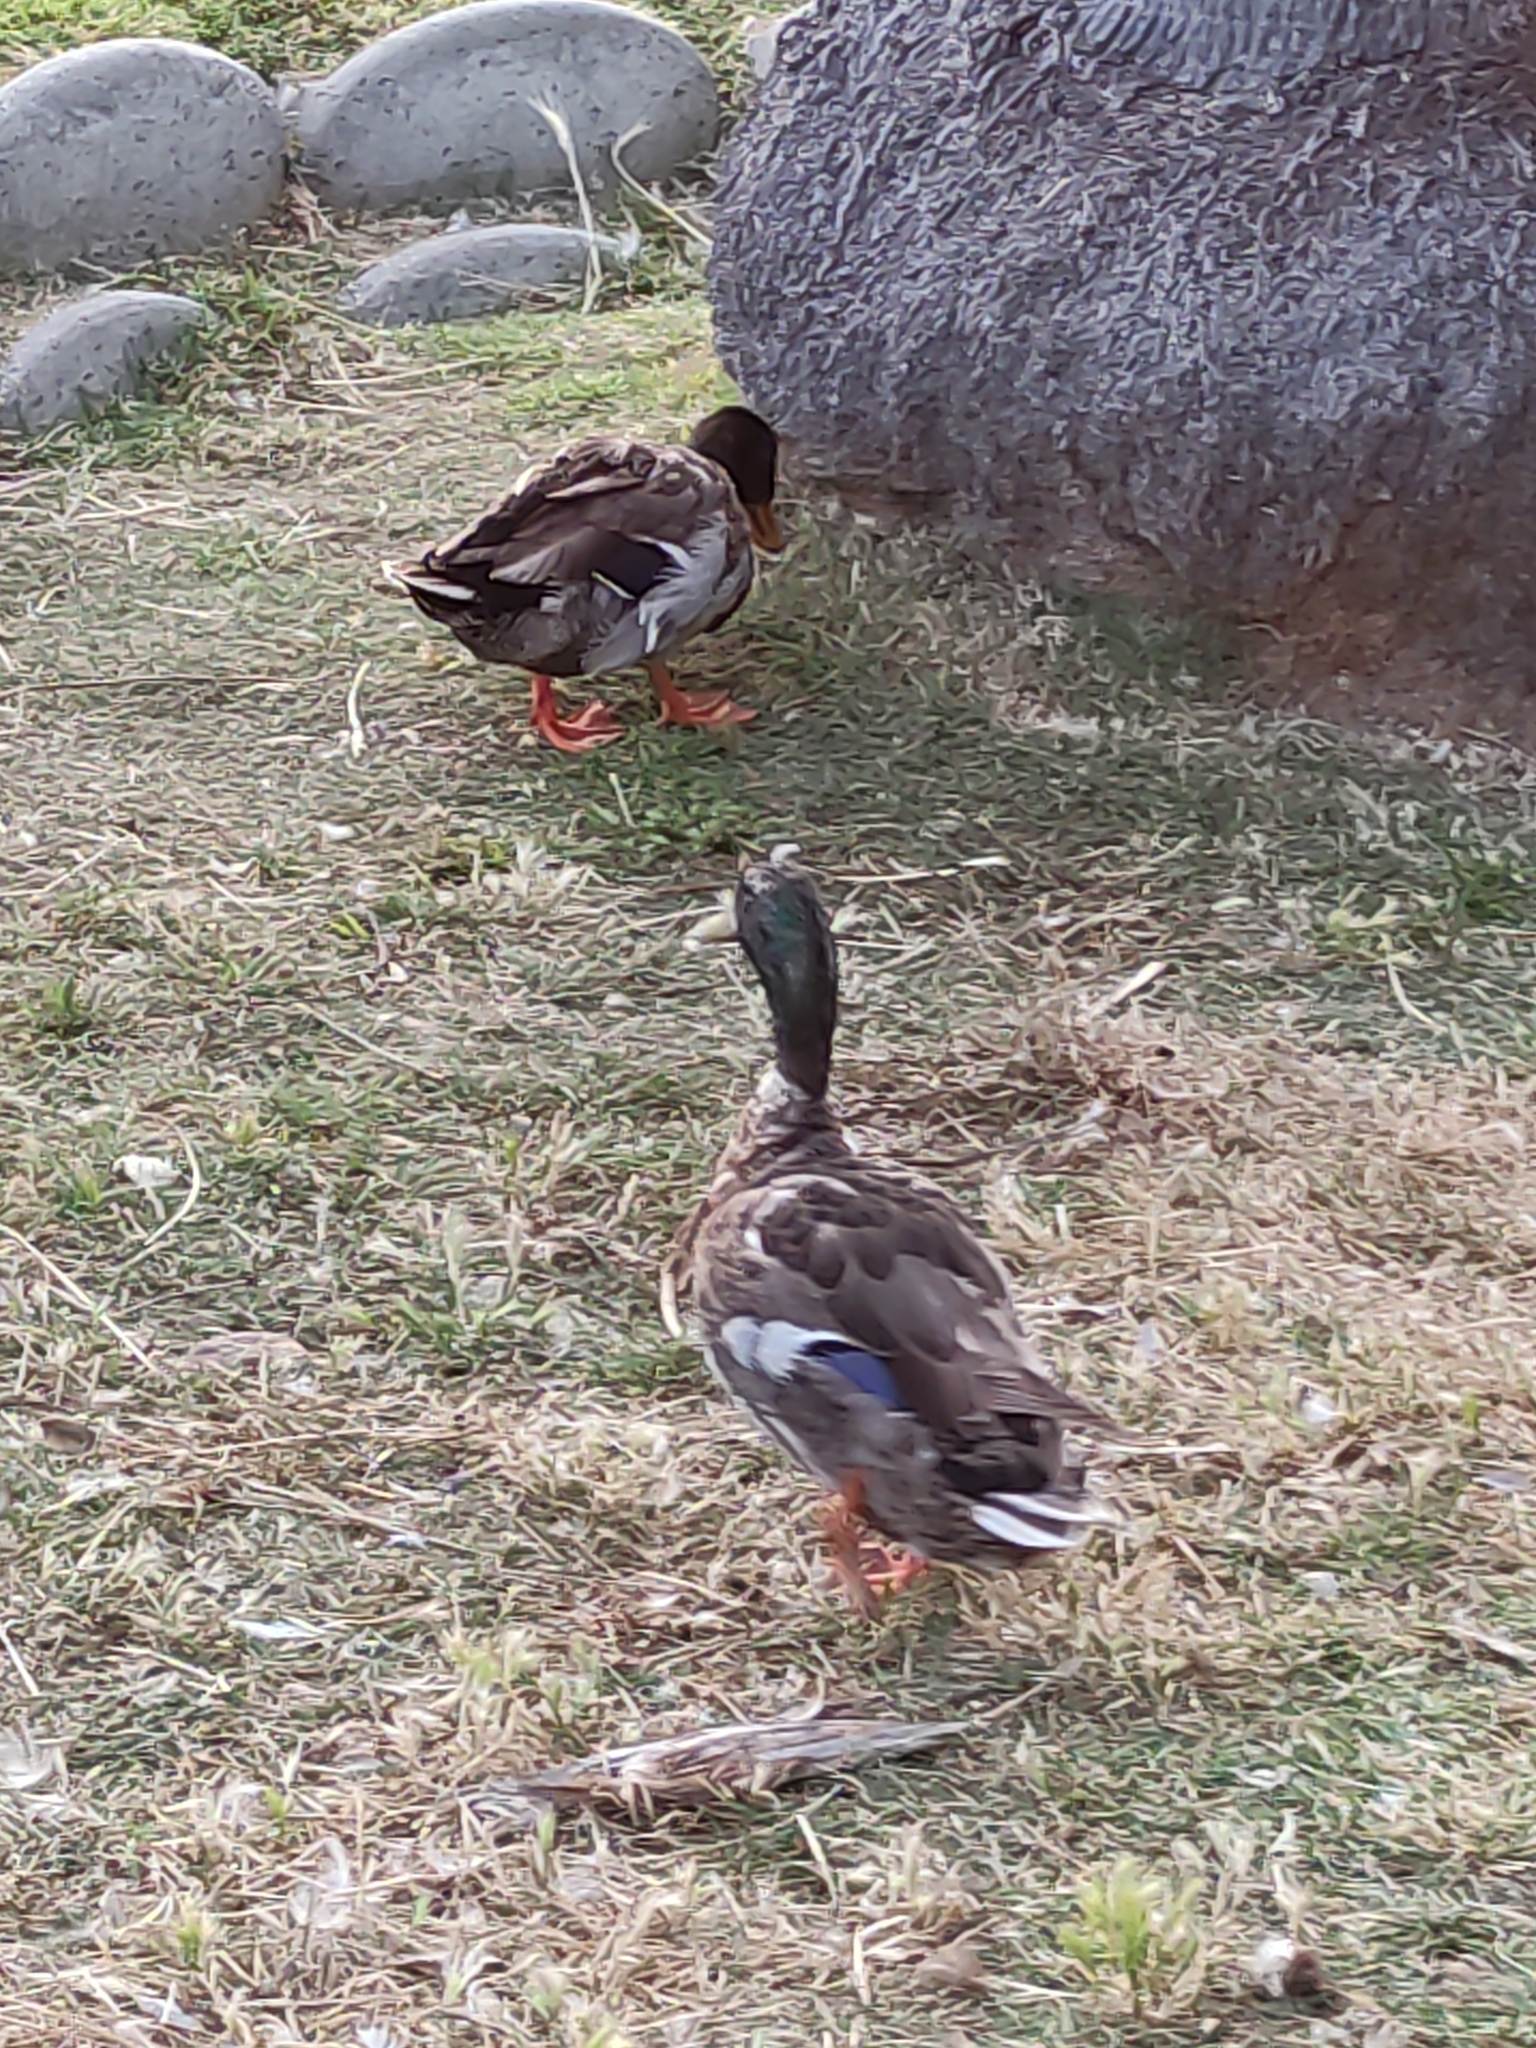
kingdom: Animalia
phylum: Chordata
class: Aves
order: Anseriformes
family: Anatidae
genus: Anas
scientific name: Anas platyrhynchos
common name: Mallard
